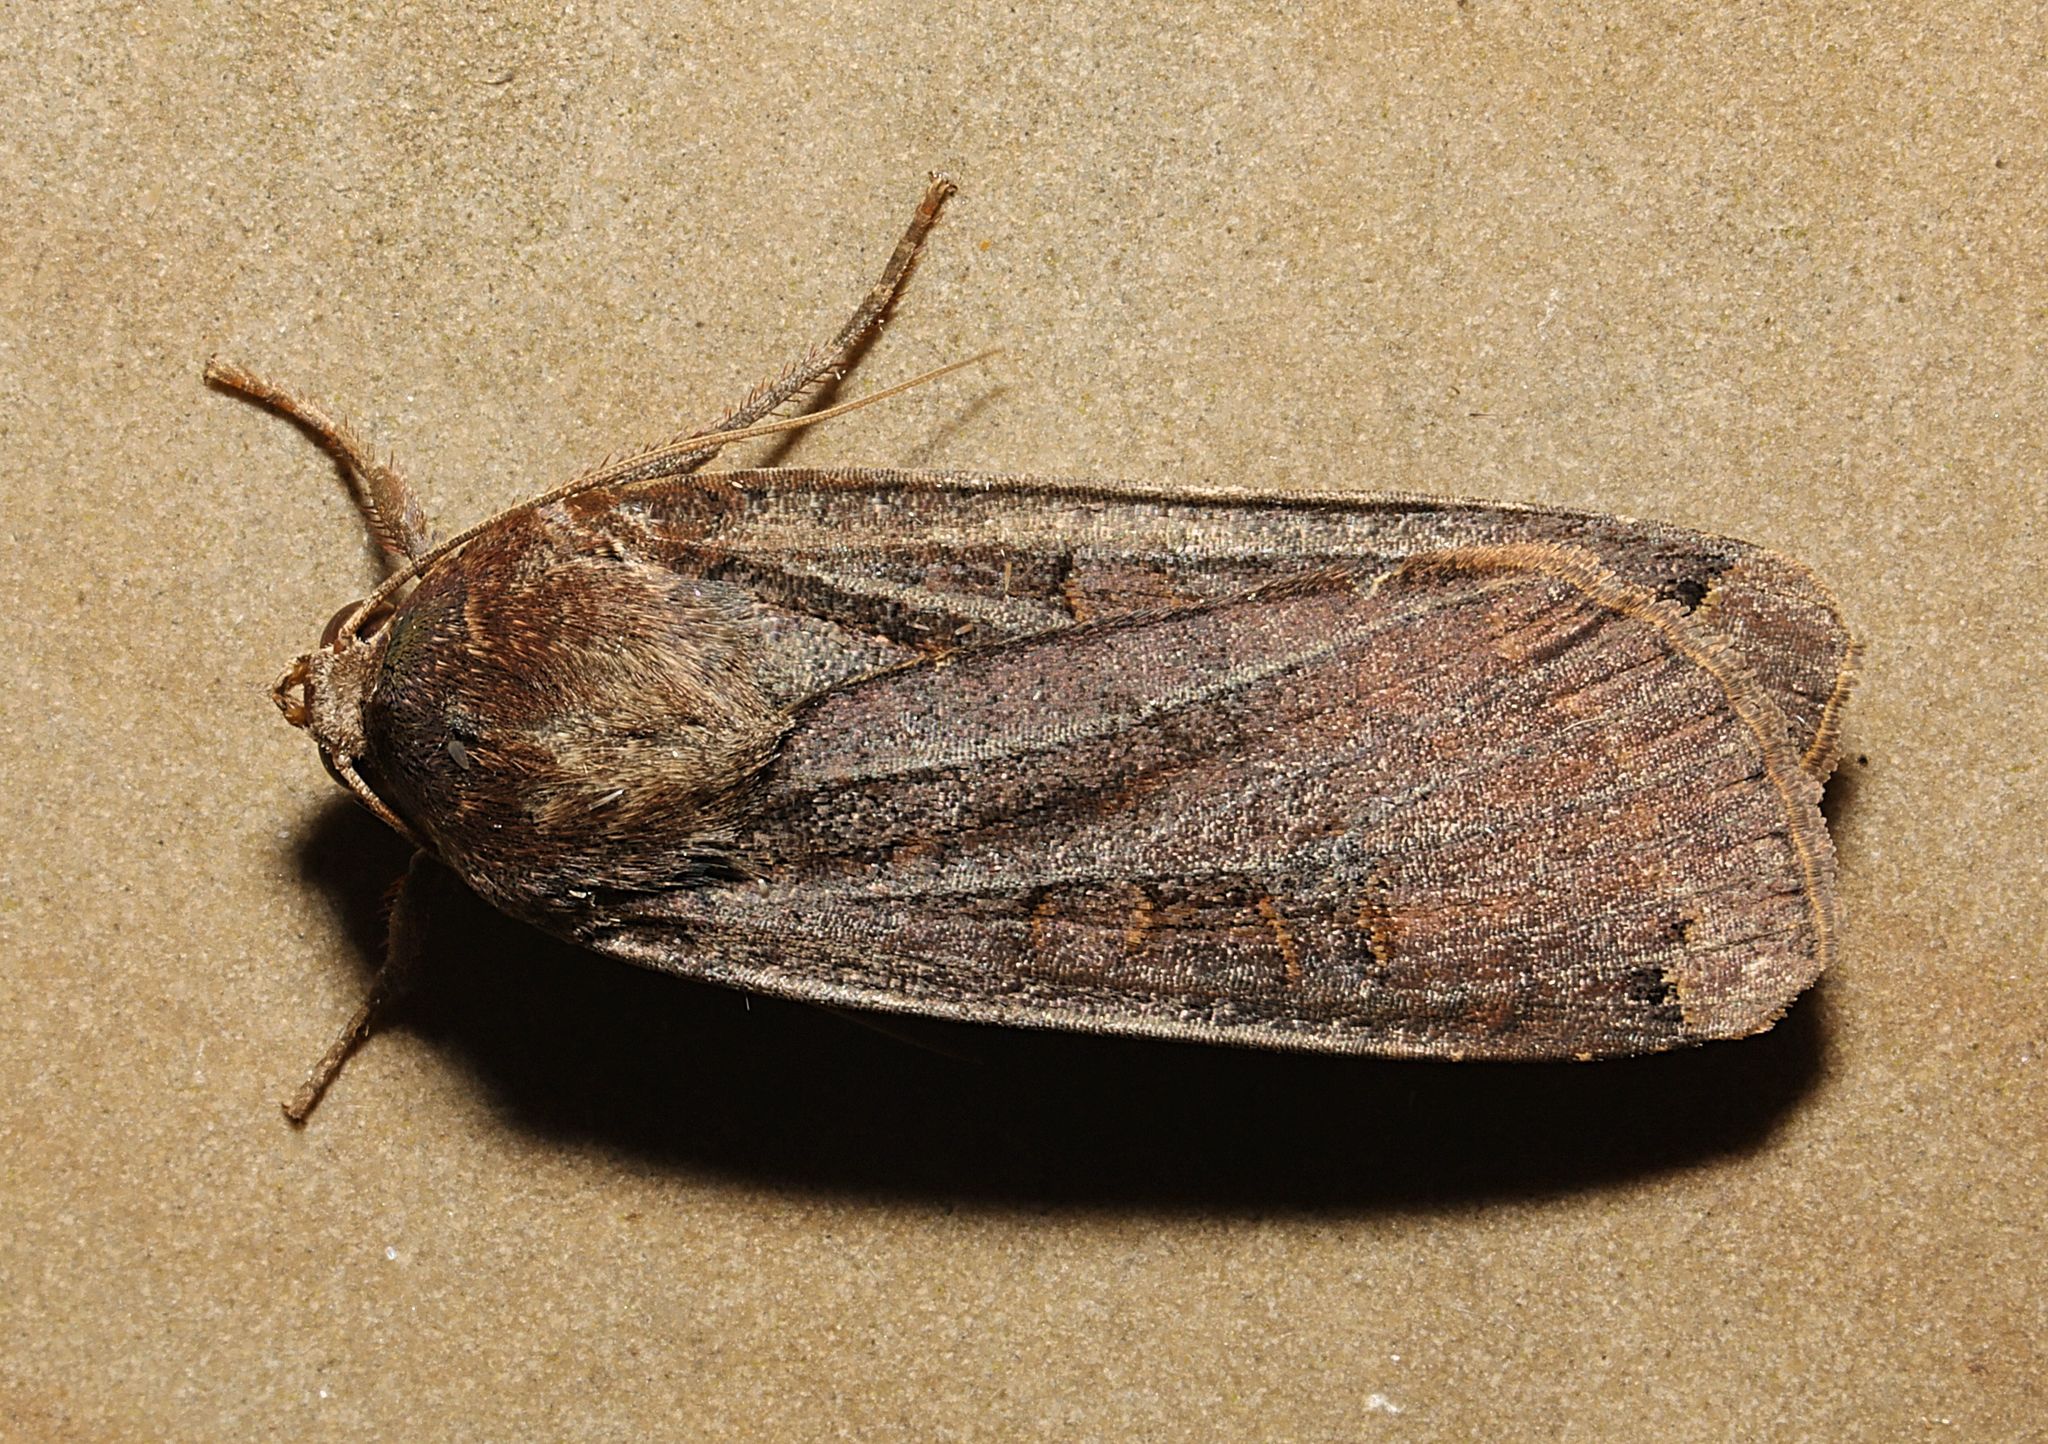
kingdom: Animalia
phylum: Arthropoda
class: Insecta
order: Lepidoptera
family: Noctuidae
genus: Noctua
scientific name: Noctua pronuba
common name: Large yellow underwing
